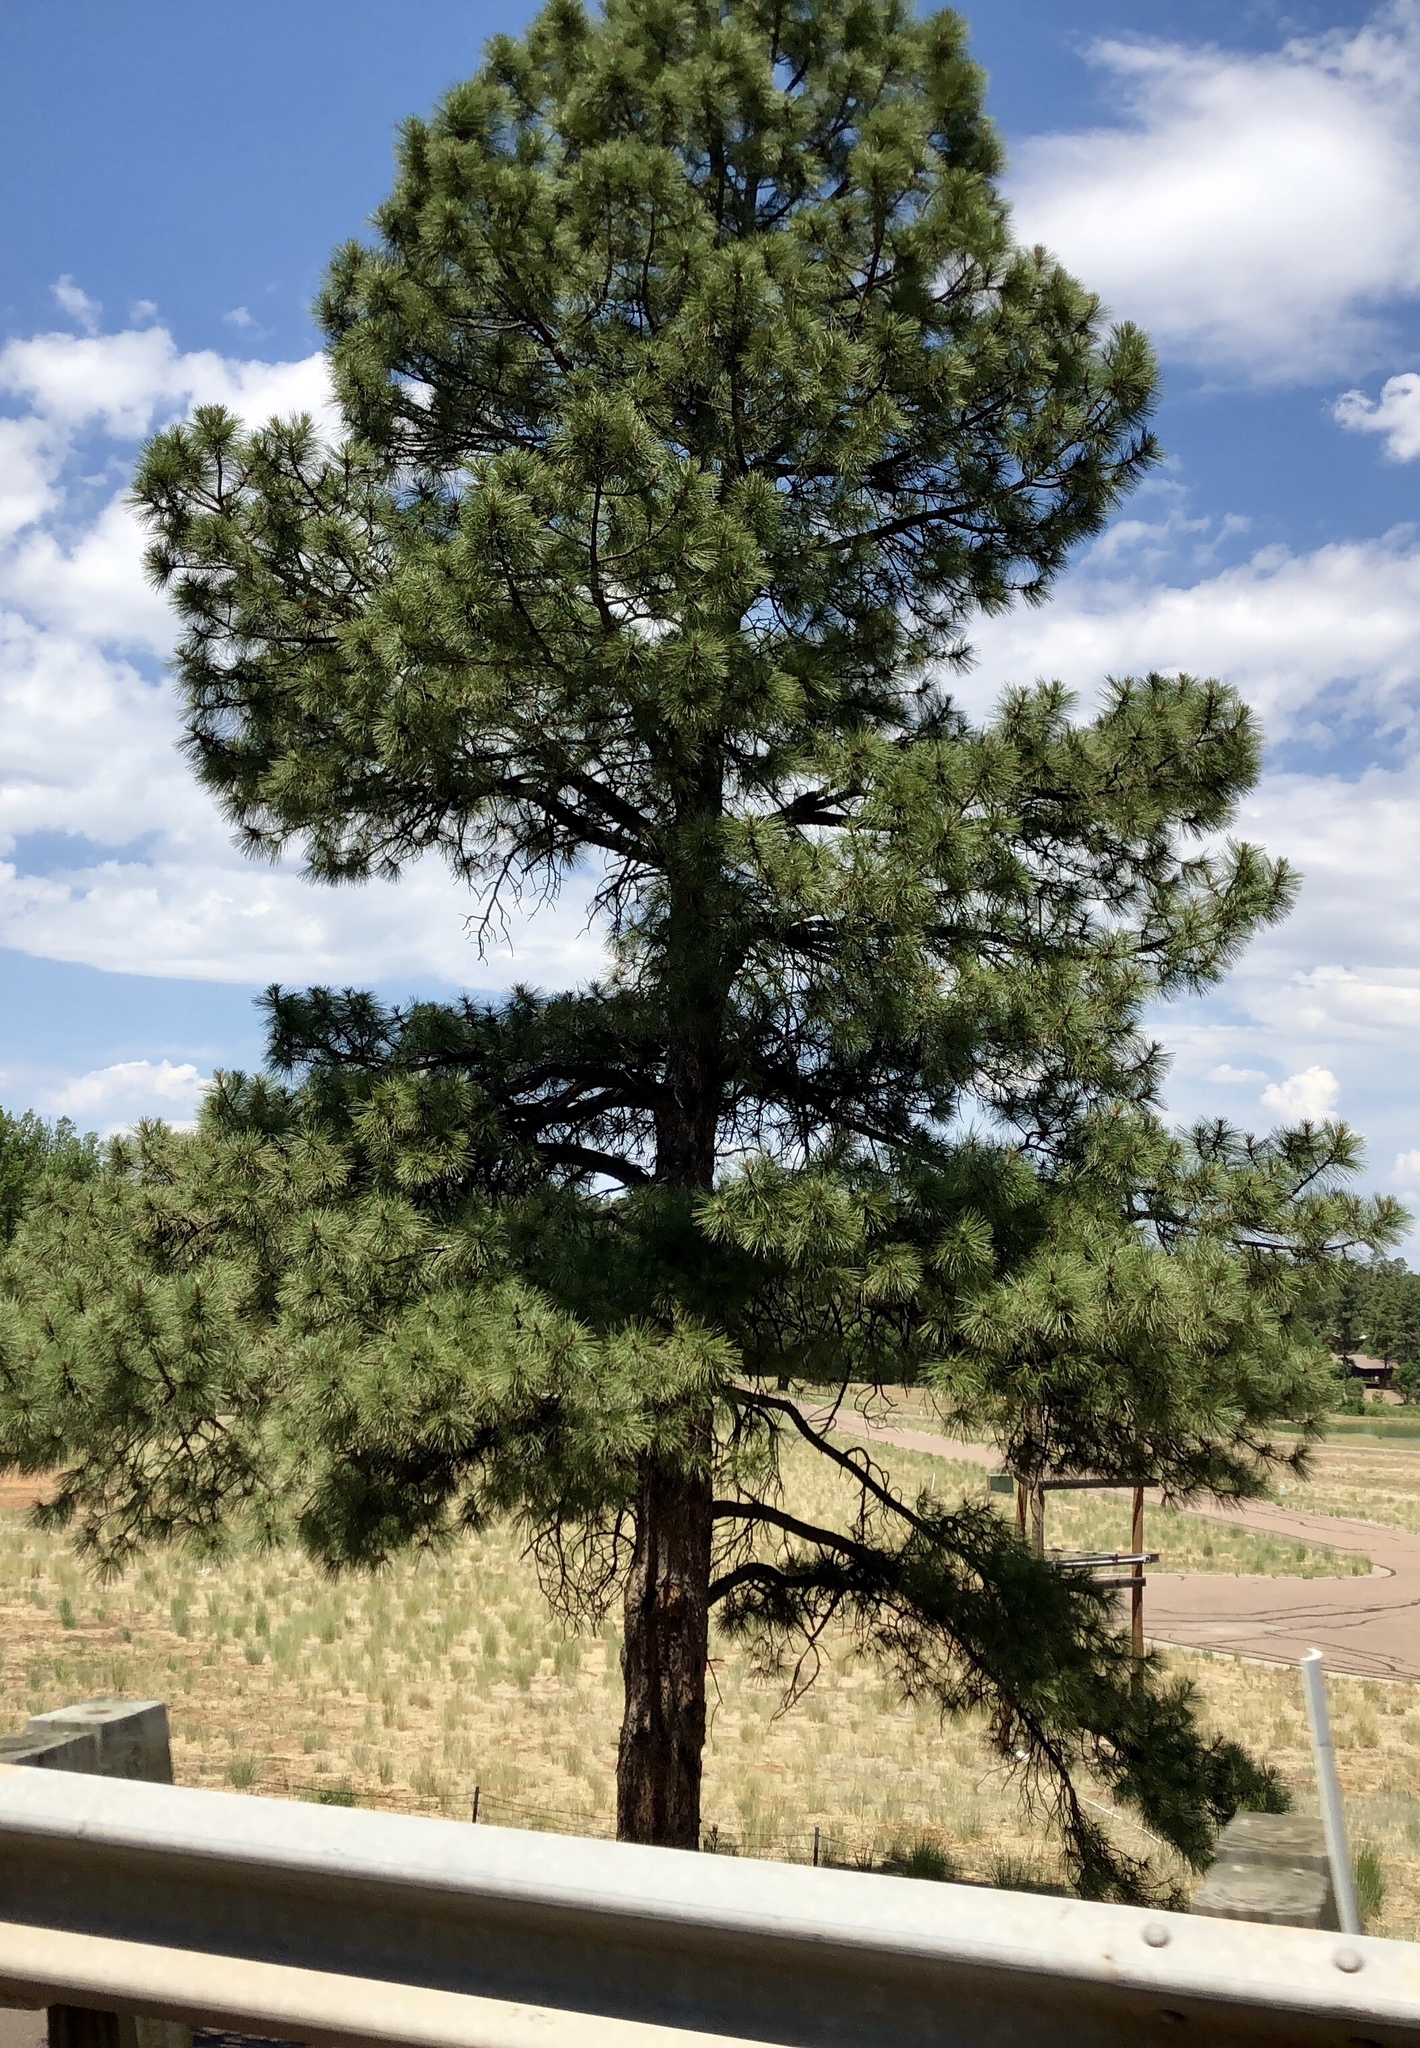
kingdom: Plantae
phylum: Tracheophyta
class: Pinopsida
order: Pinales
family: Pinaceae
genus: Pinus
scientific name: Pinus ponderosa
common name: Western yellow-pine
